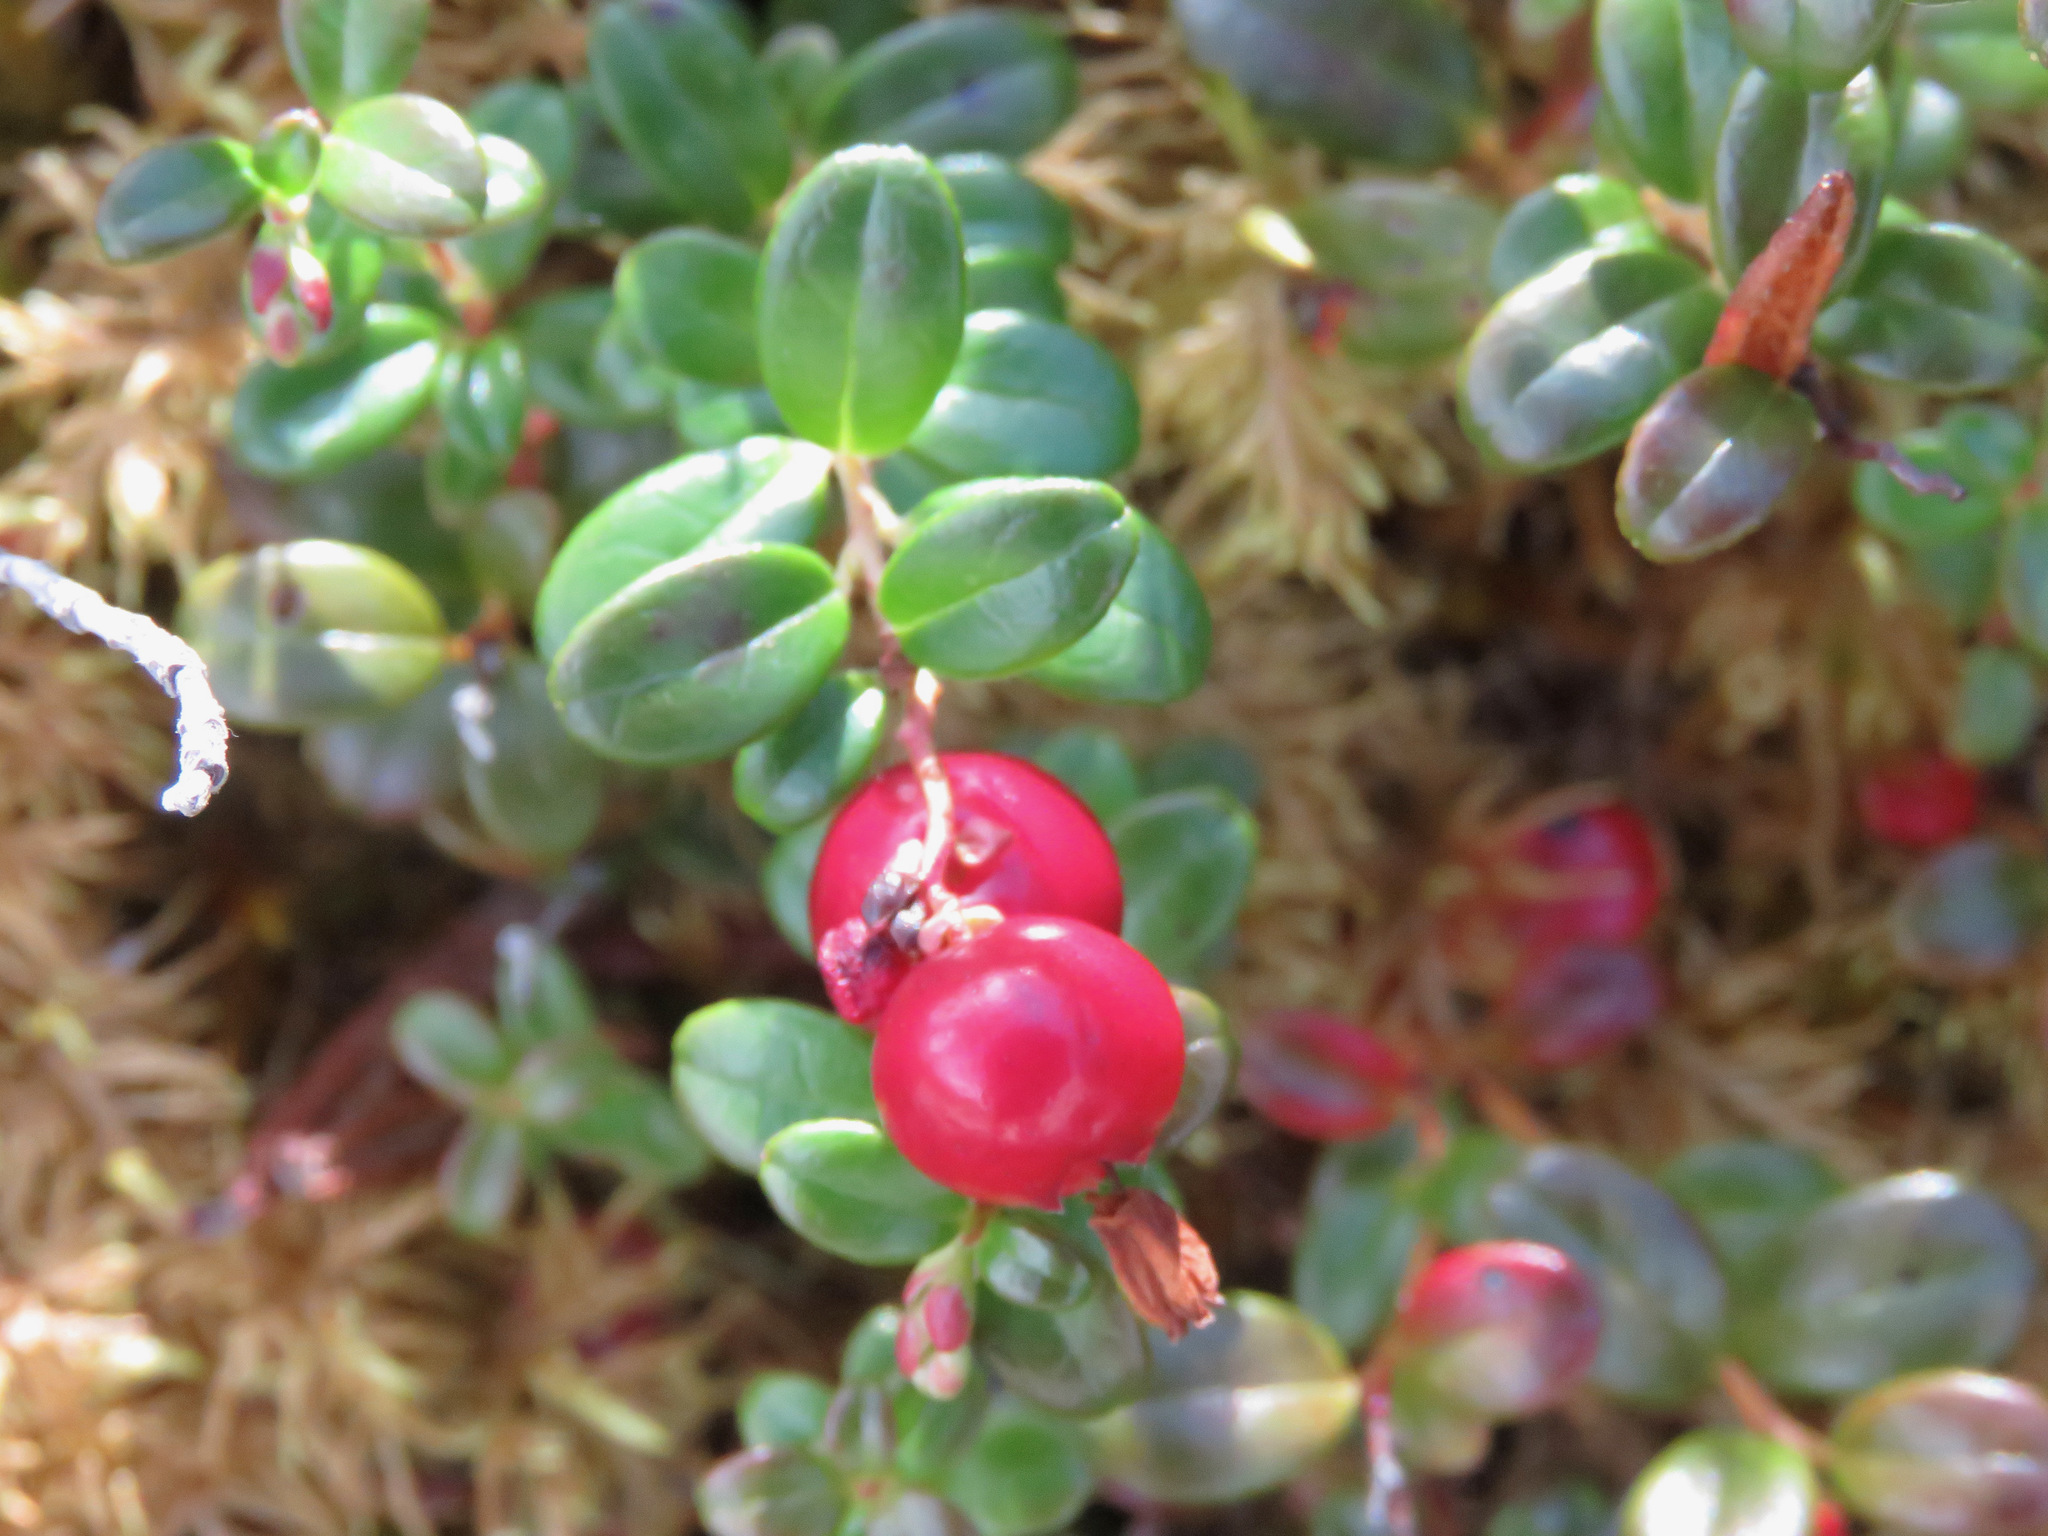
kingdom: Plantae
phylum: Tracheophyta
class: Magnoliopsida
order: Ericales
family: Ericaceae
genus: Vaccinium
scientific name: Vaccinium vitis-idaea
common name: Cowberry
